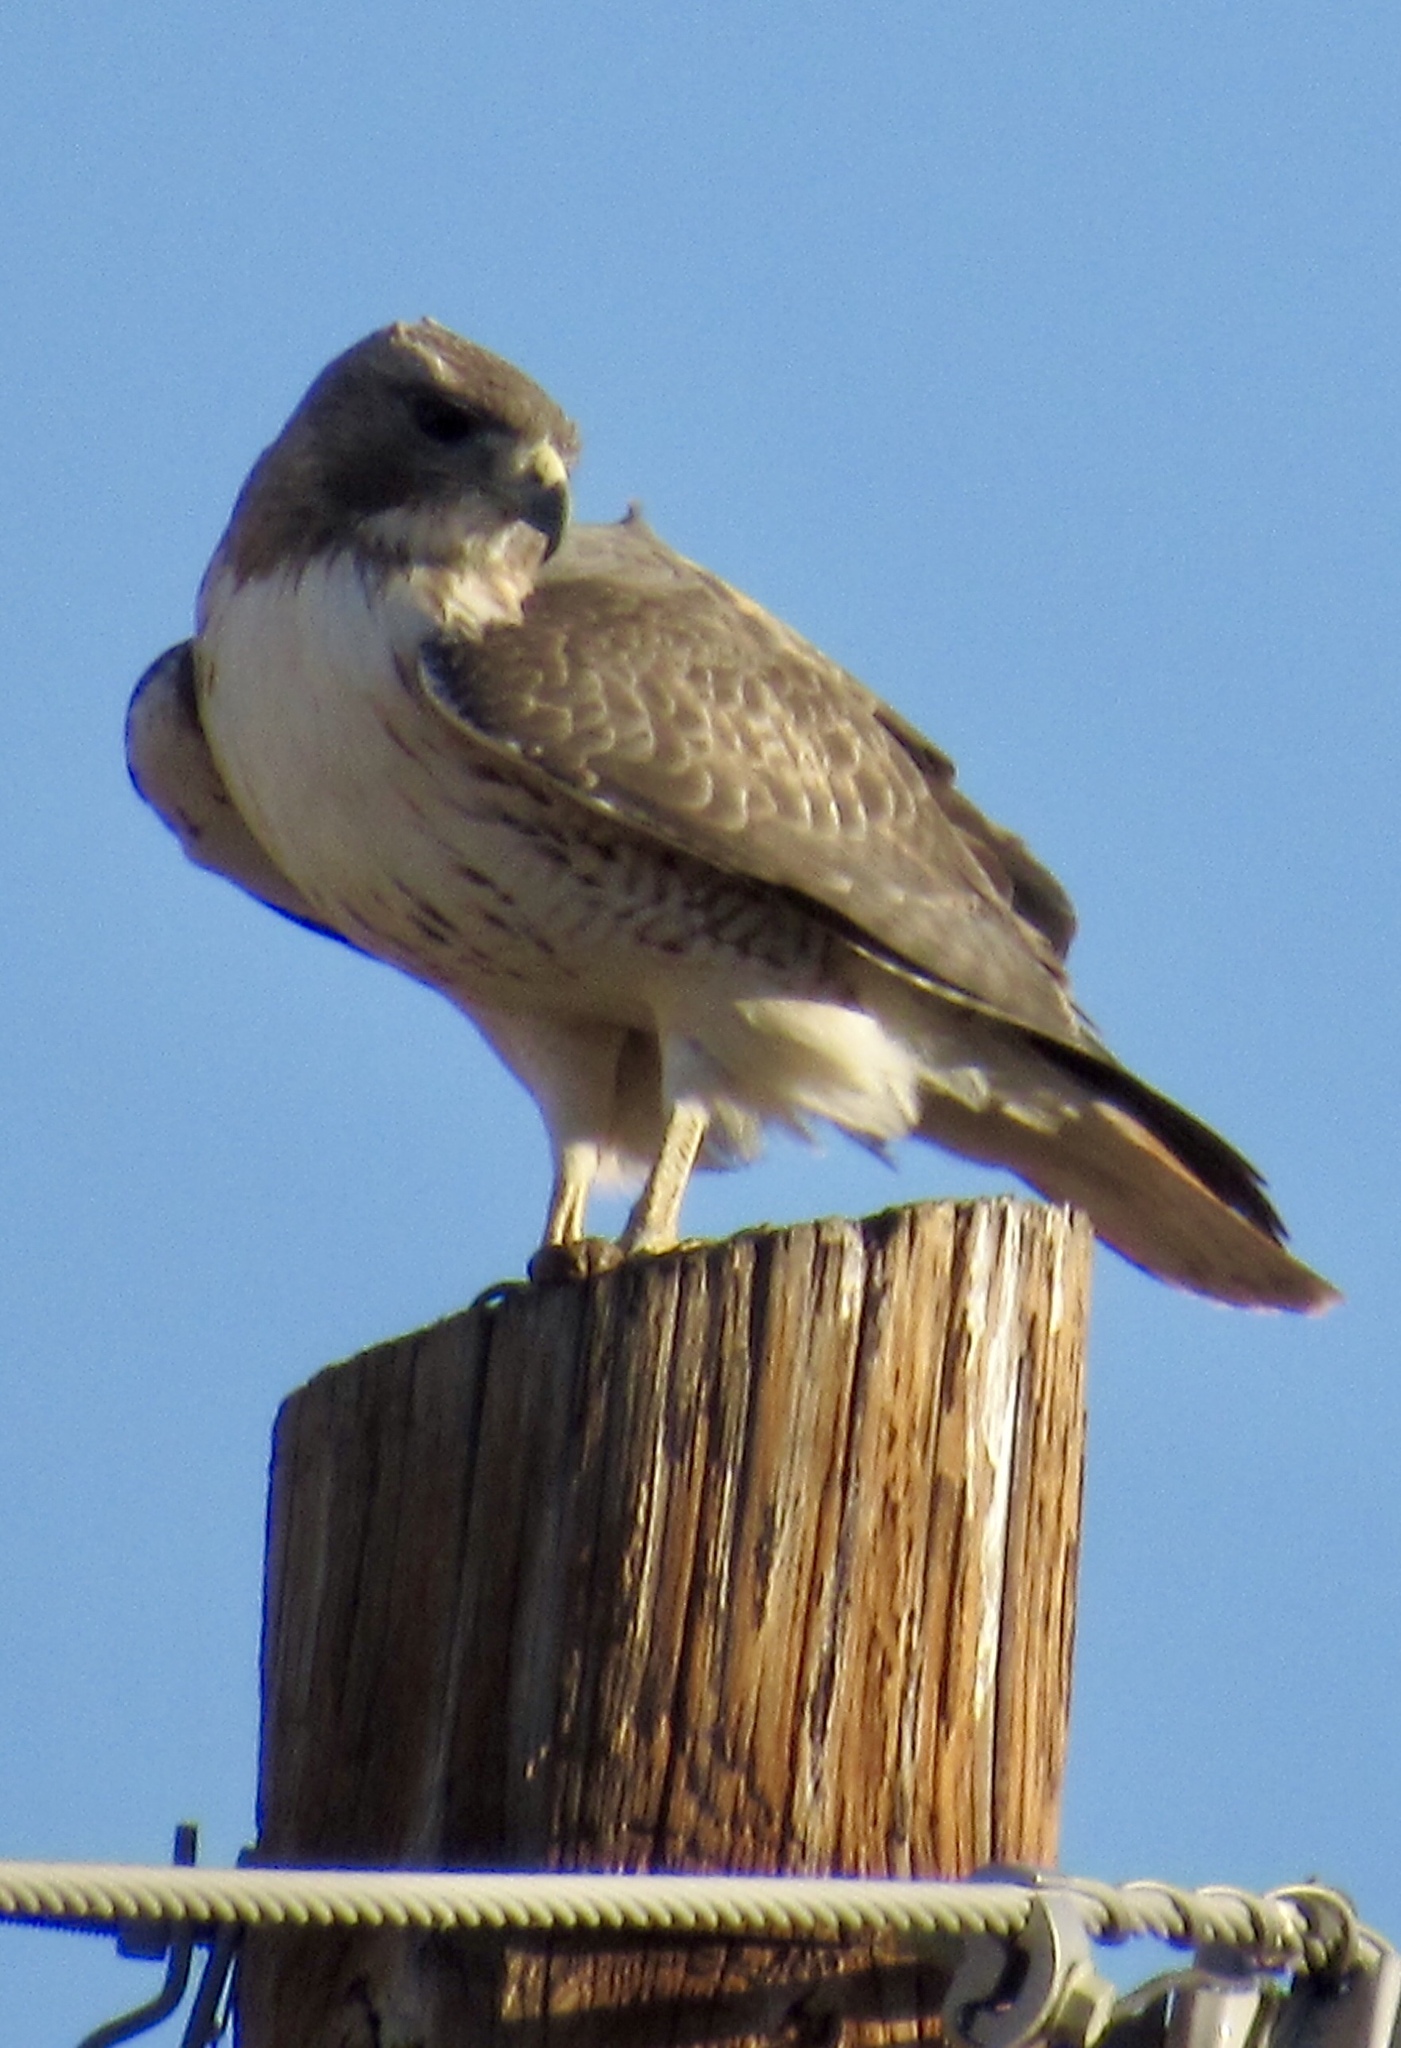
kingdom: Animalia
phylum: Chordata
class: Aves
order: Accipitriformes
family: Accipitridae
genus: Buteo
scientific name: Buteo jamaicensis
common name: Red-tailed hawk
